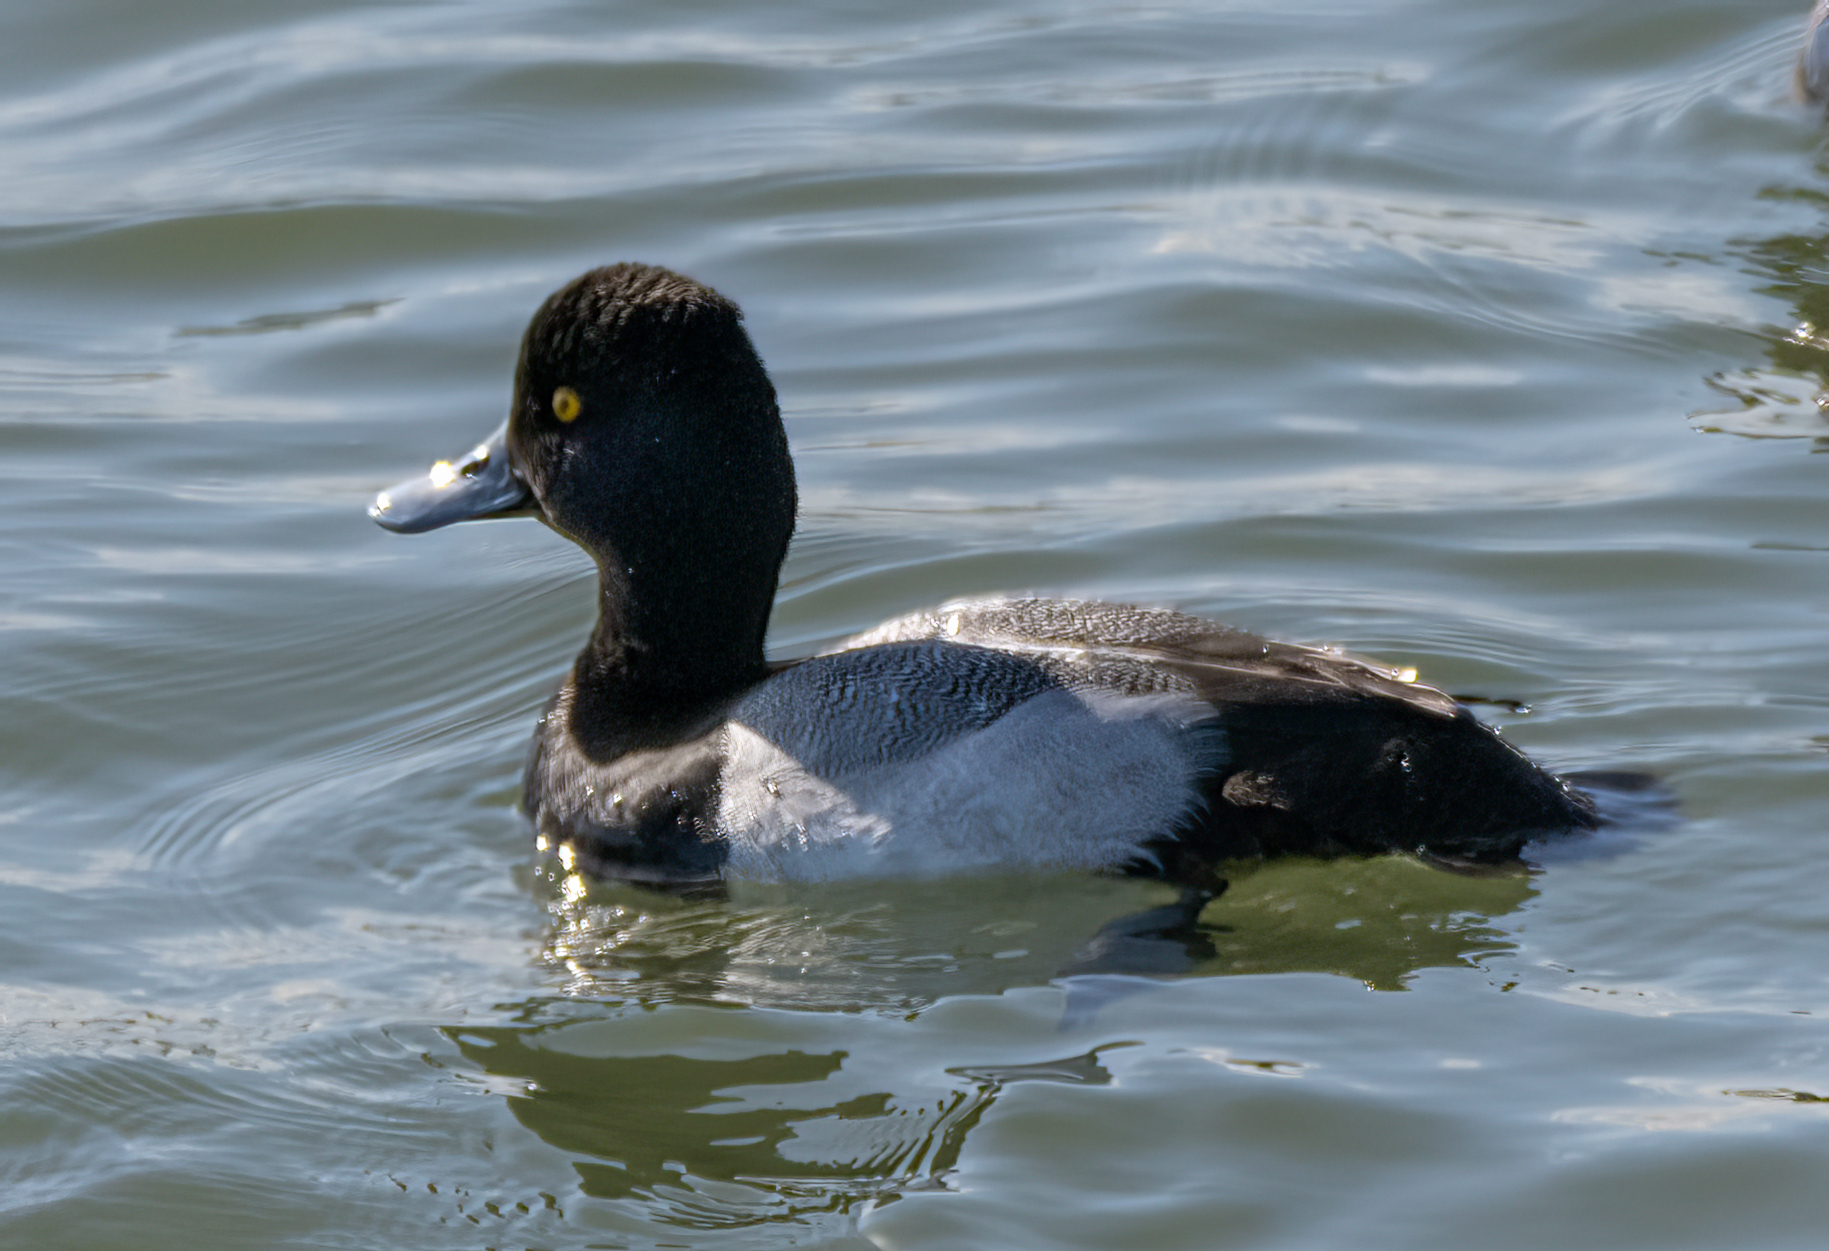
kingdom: Animalia
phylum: Chordata
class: Aves
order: Anseriformes
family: Anatidae
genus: Aythya
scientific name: Aythya affinis
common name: Lesser scaup
